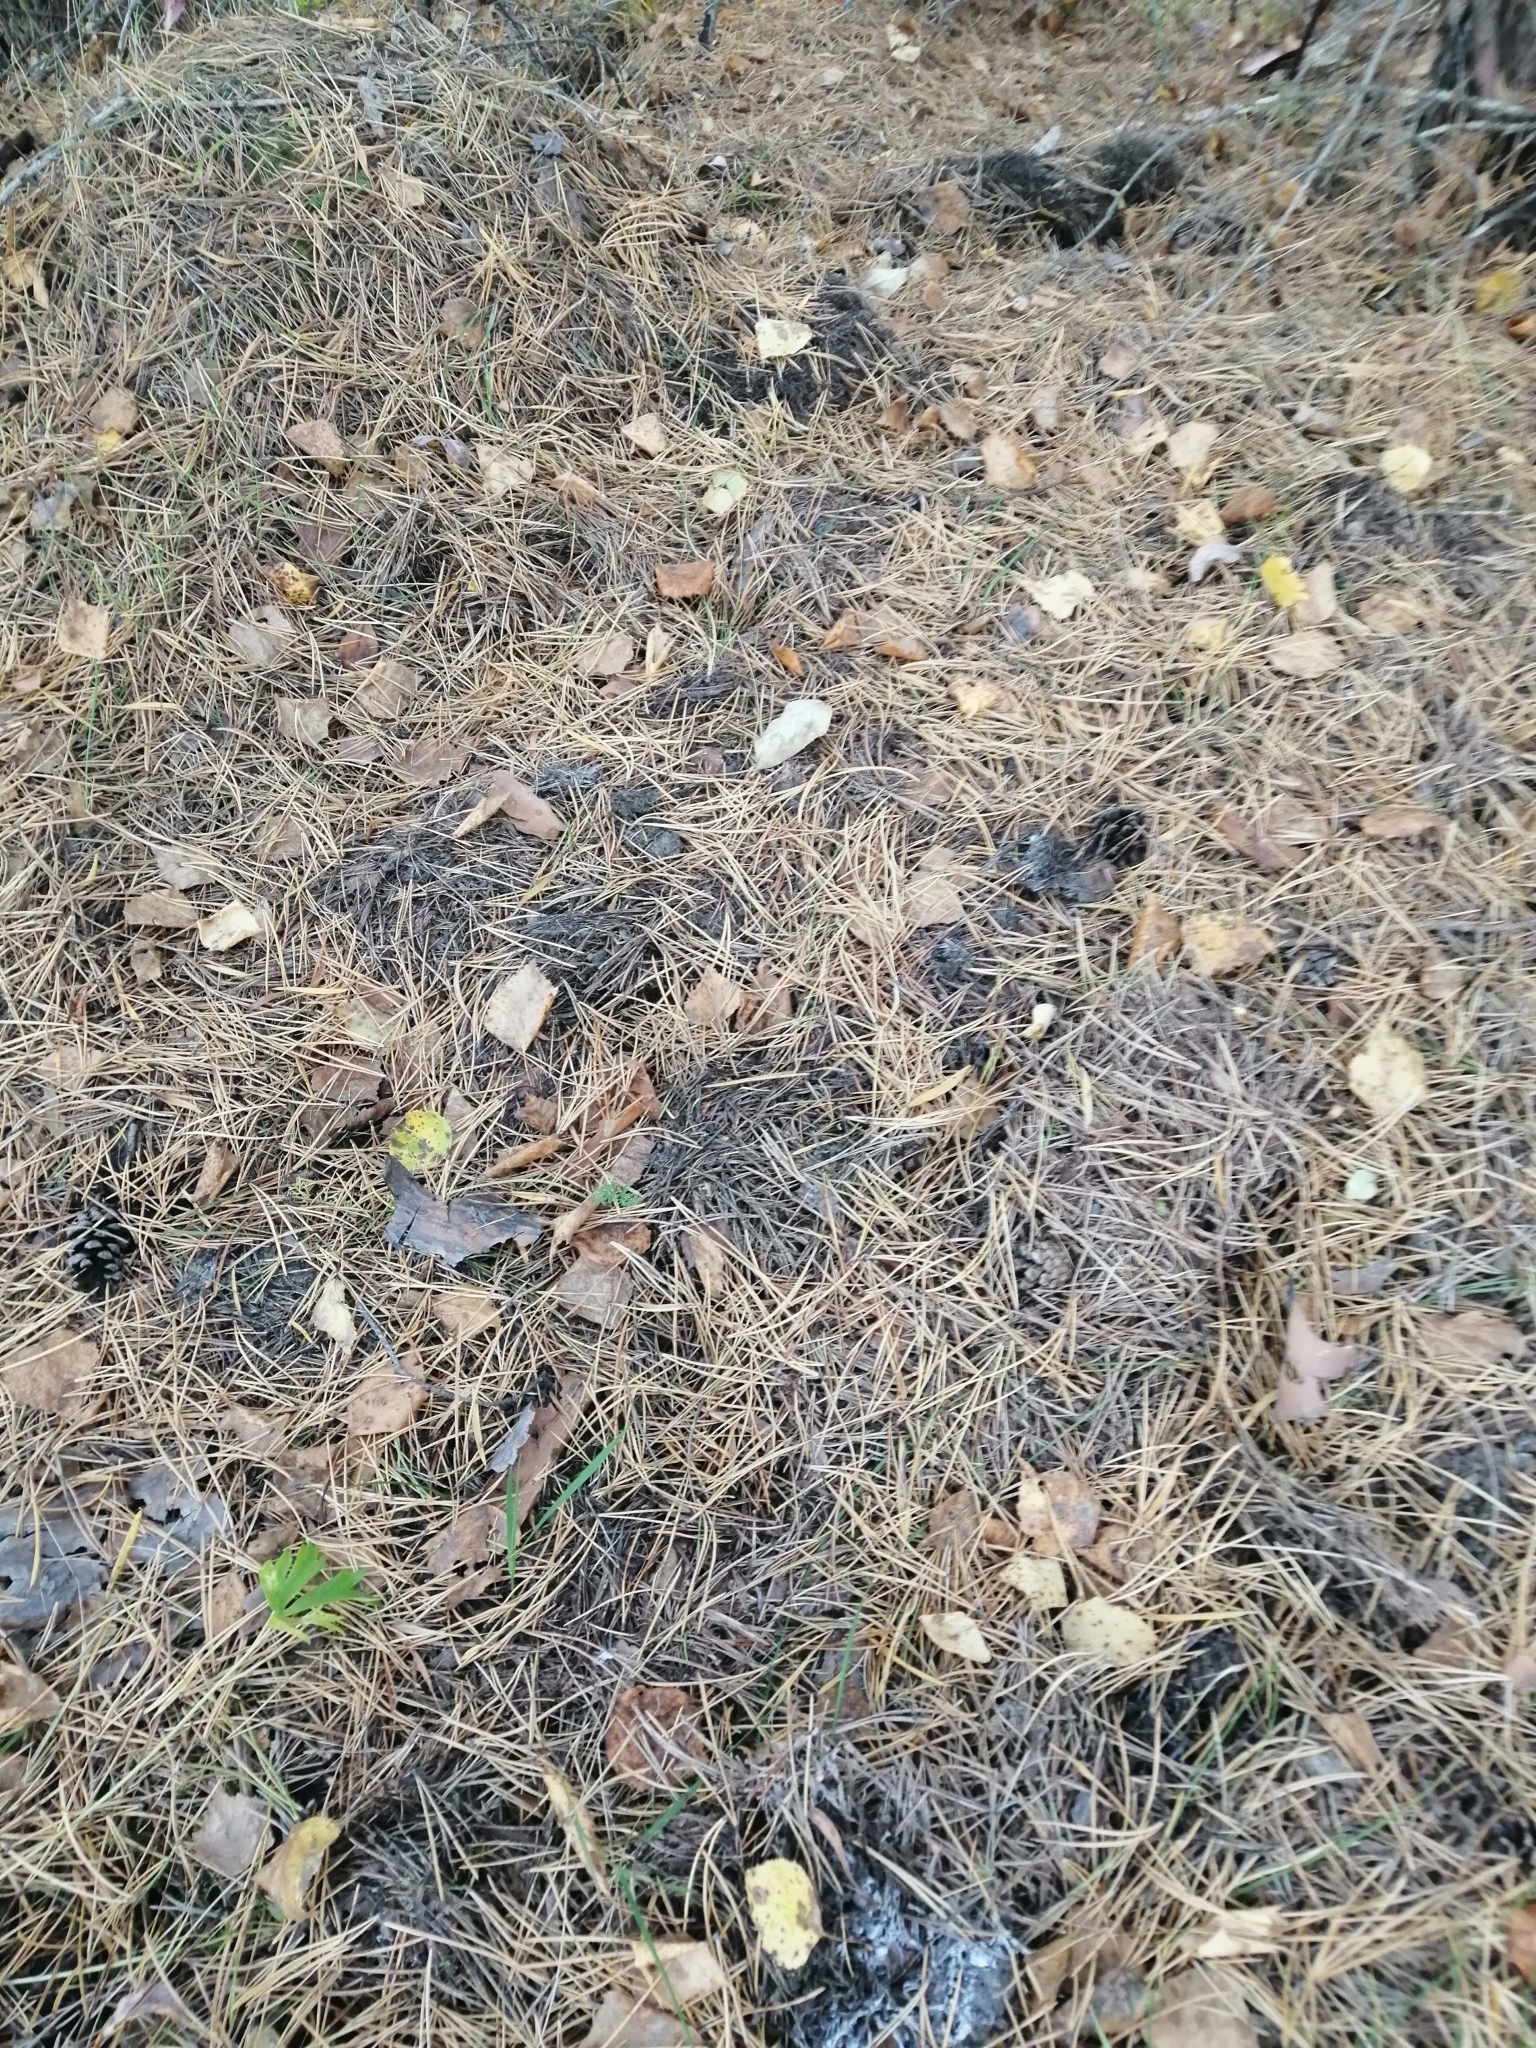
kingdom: Animalia
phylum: Chordata
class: Mammalia
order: Carnivora
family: Mustelidae
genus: Meles
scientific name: Meles leucurus
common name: Asian badger
